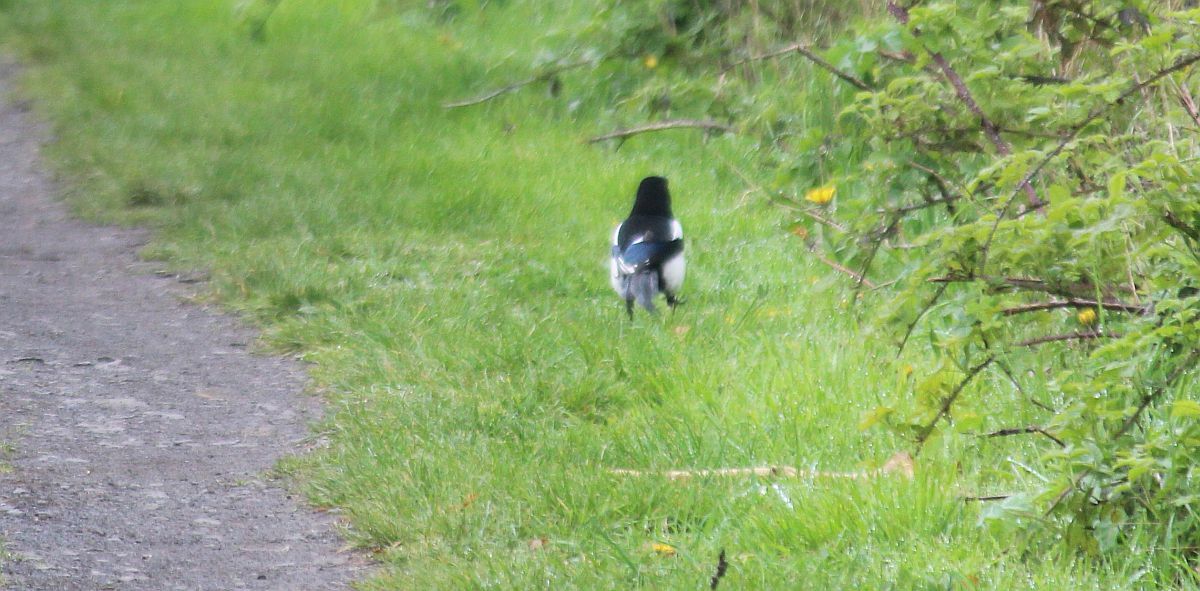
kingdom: Animalia
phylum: Chordata
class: Aves
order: Passeriformes
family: Corvidae
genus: Pica
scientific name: Pica pica
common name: Eurasian magpie
